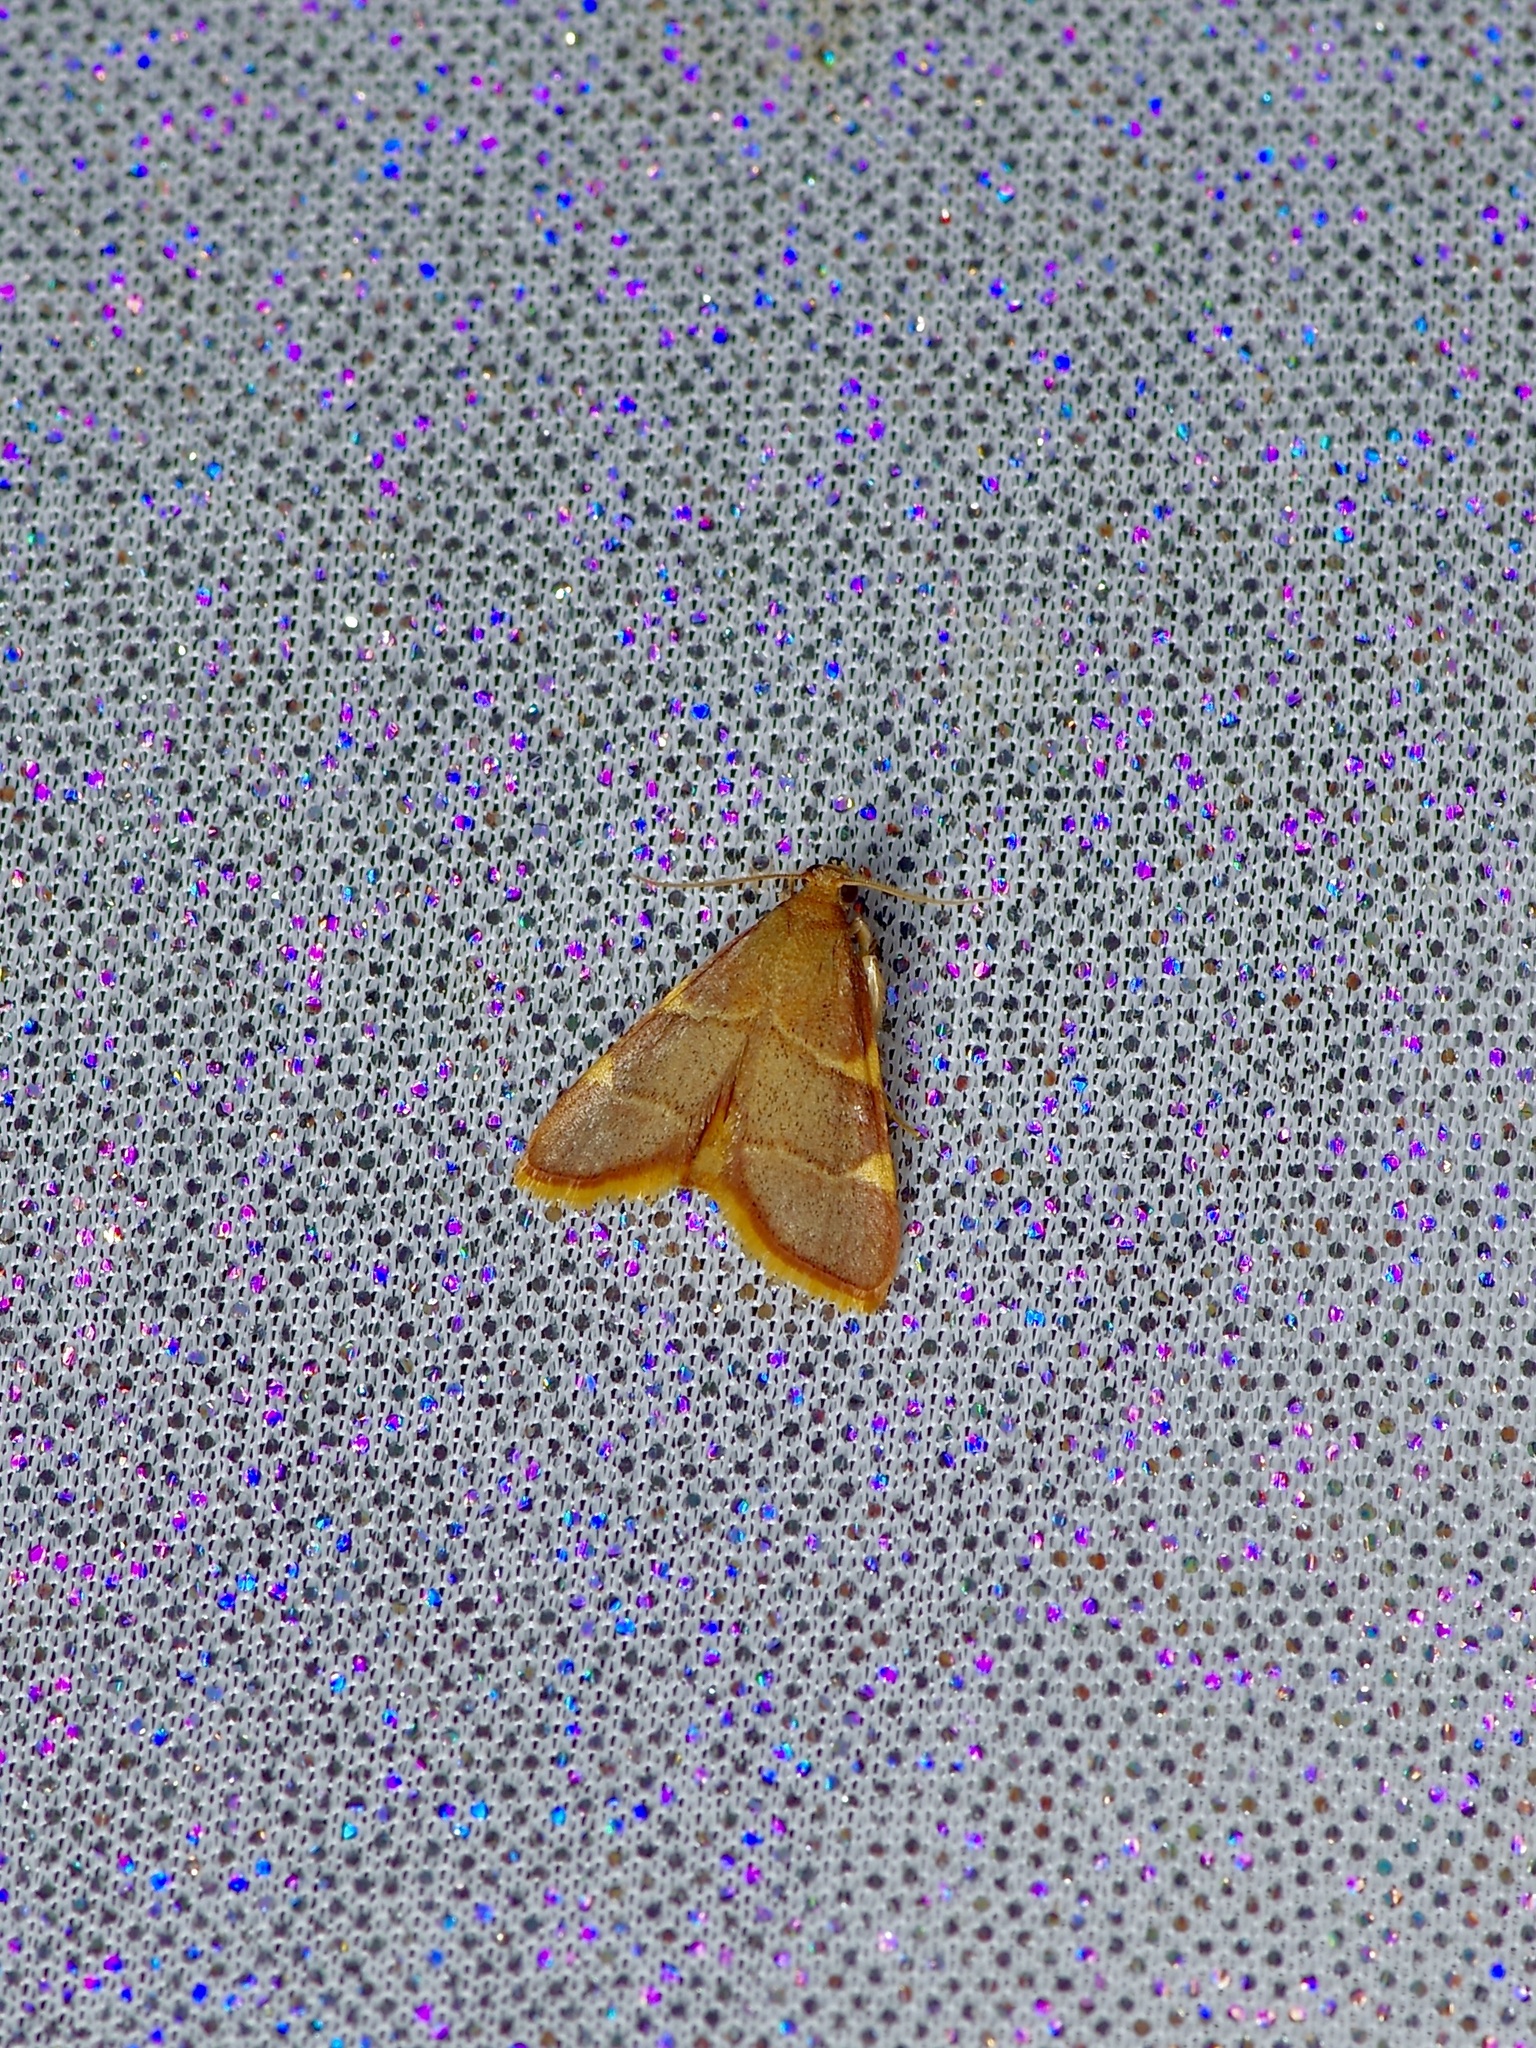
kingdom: Animalia
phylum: Arthropoda
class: Insecta
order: Lepidoptera
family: Pyralidae
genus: Hypsopygia
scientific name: Hypsopygia olinalis
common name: Yellow-fringed dolichomia moth
